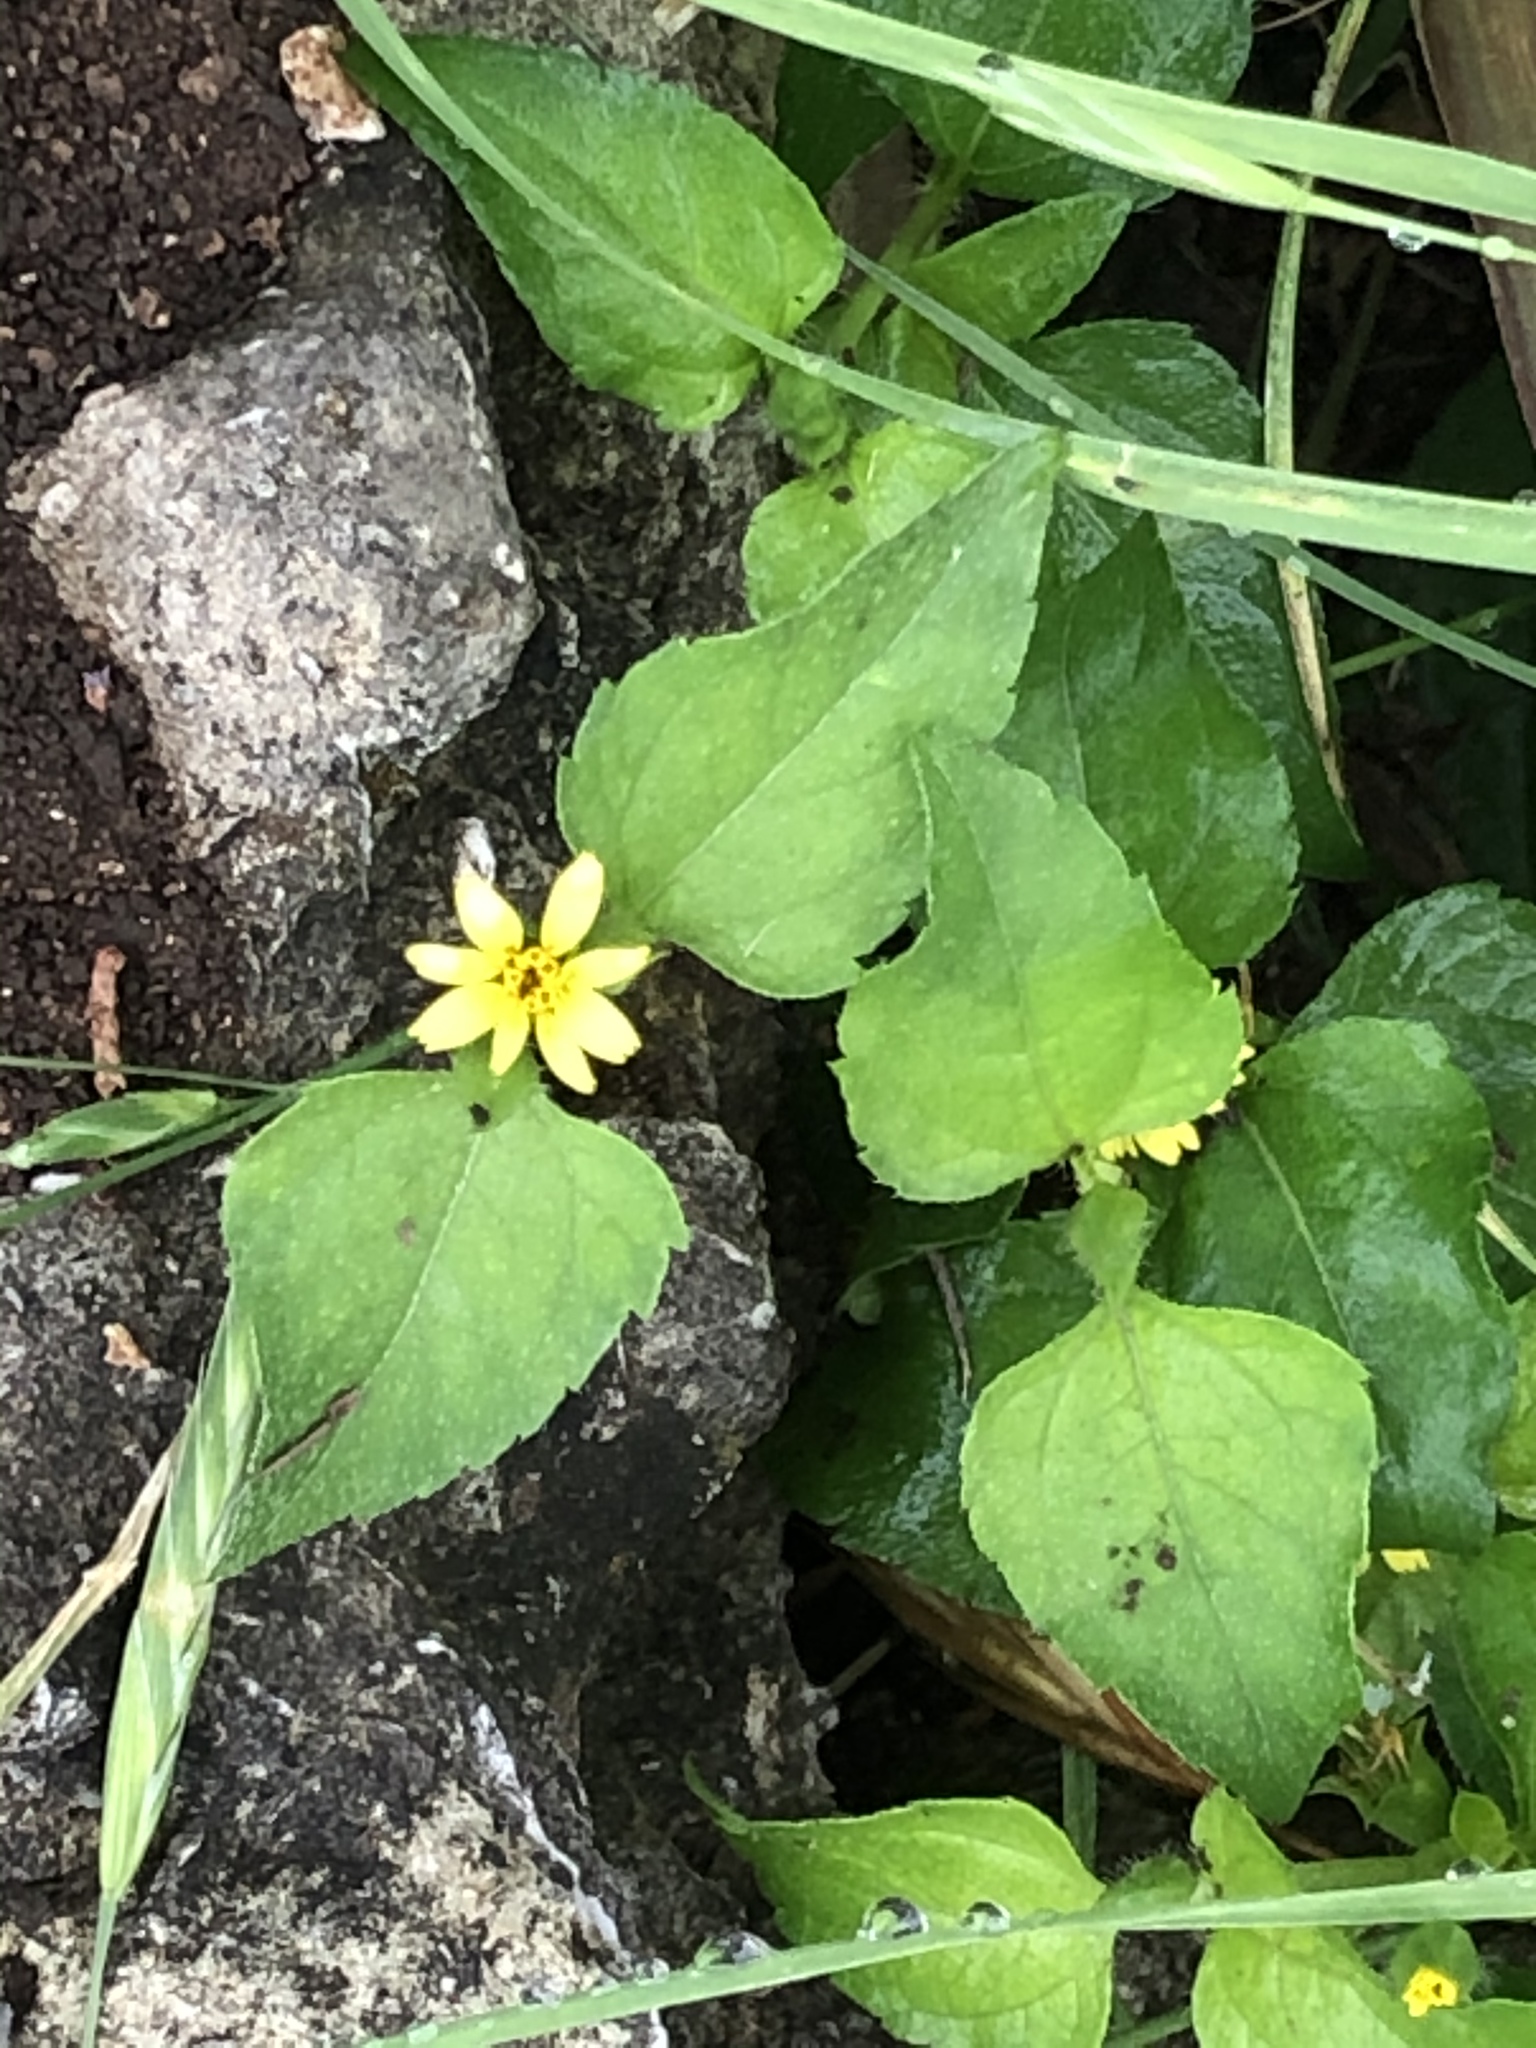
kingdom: Plantae
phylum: Tracheophyta
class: Magnoliopsida
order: Asterales
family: Asteraceae
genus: Calyptocarpus
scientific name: Calyptocarpus vialis
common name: Straggler daisy
